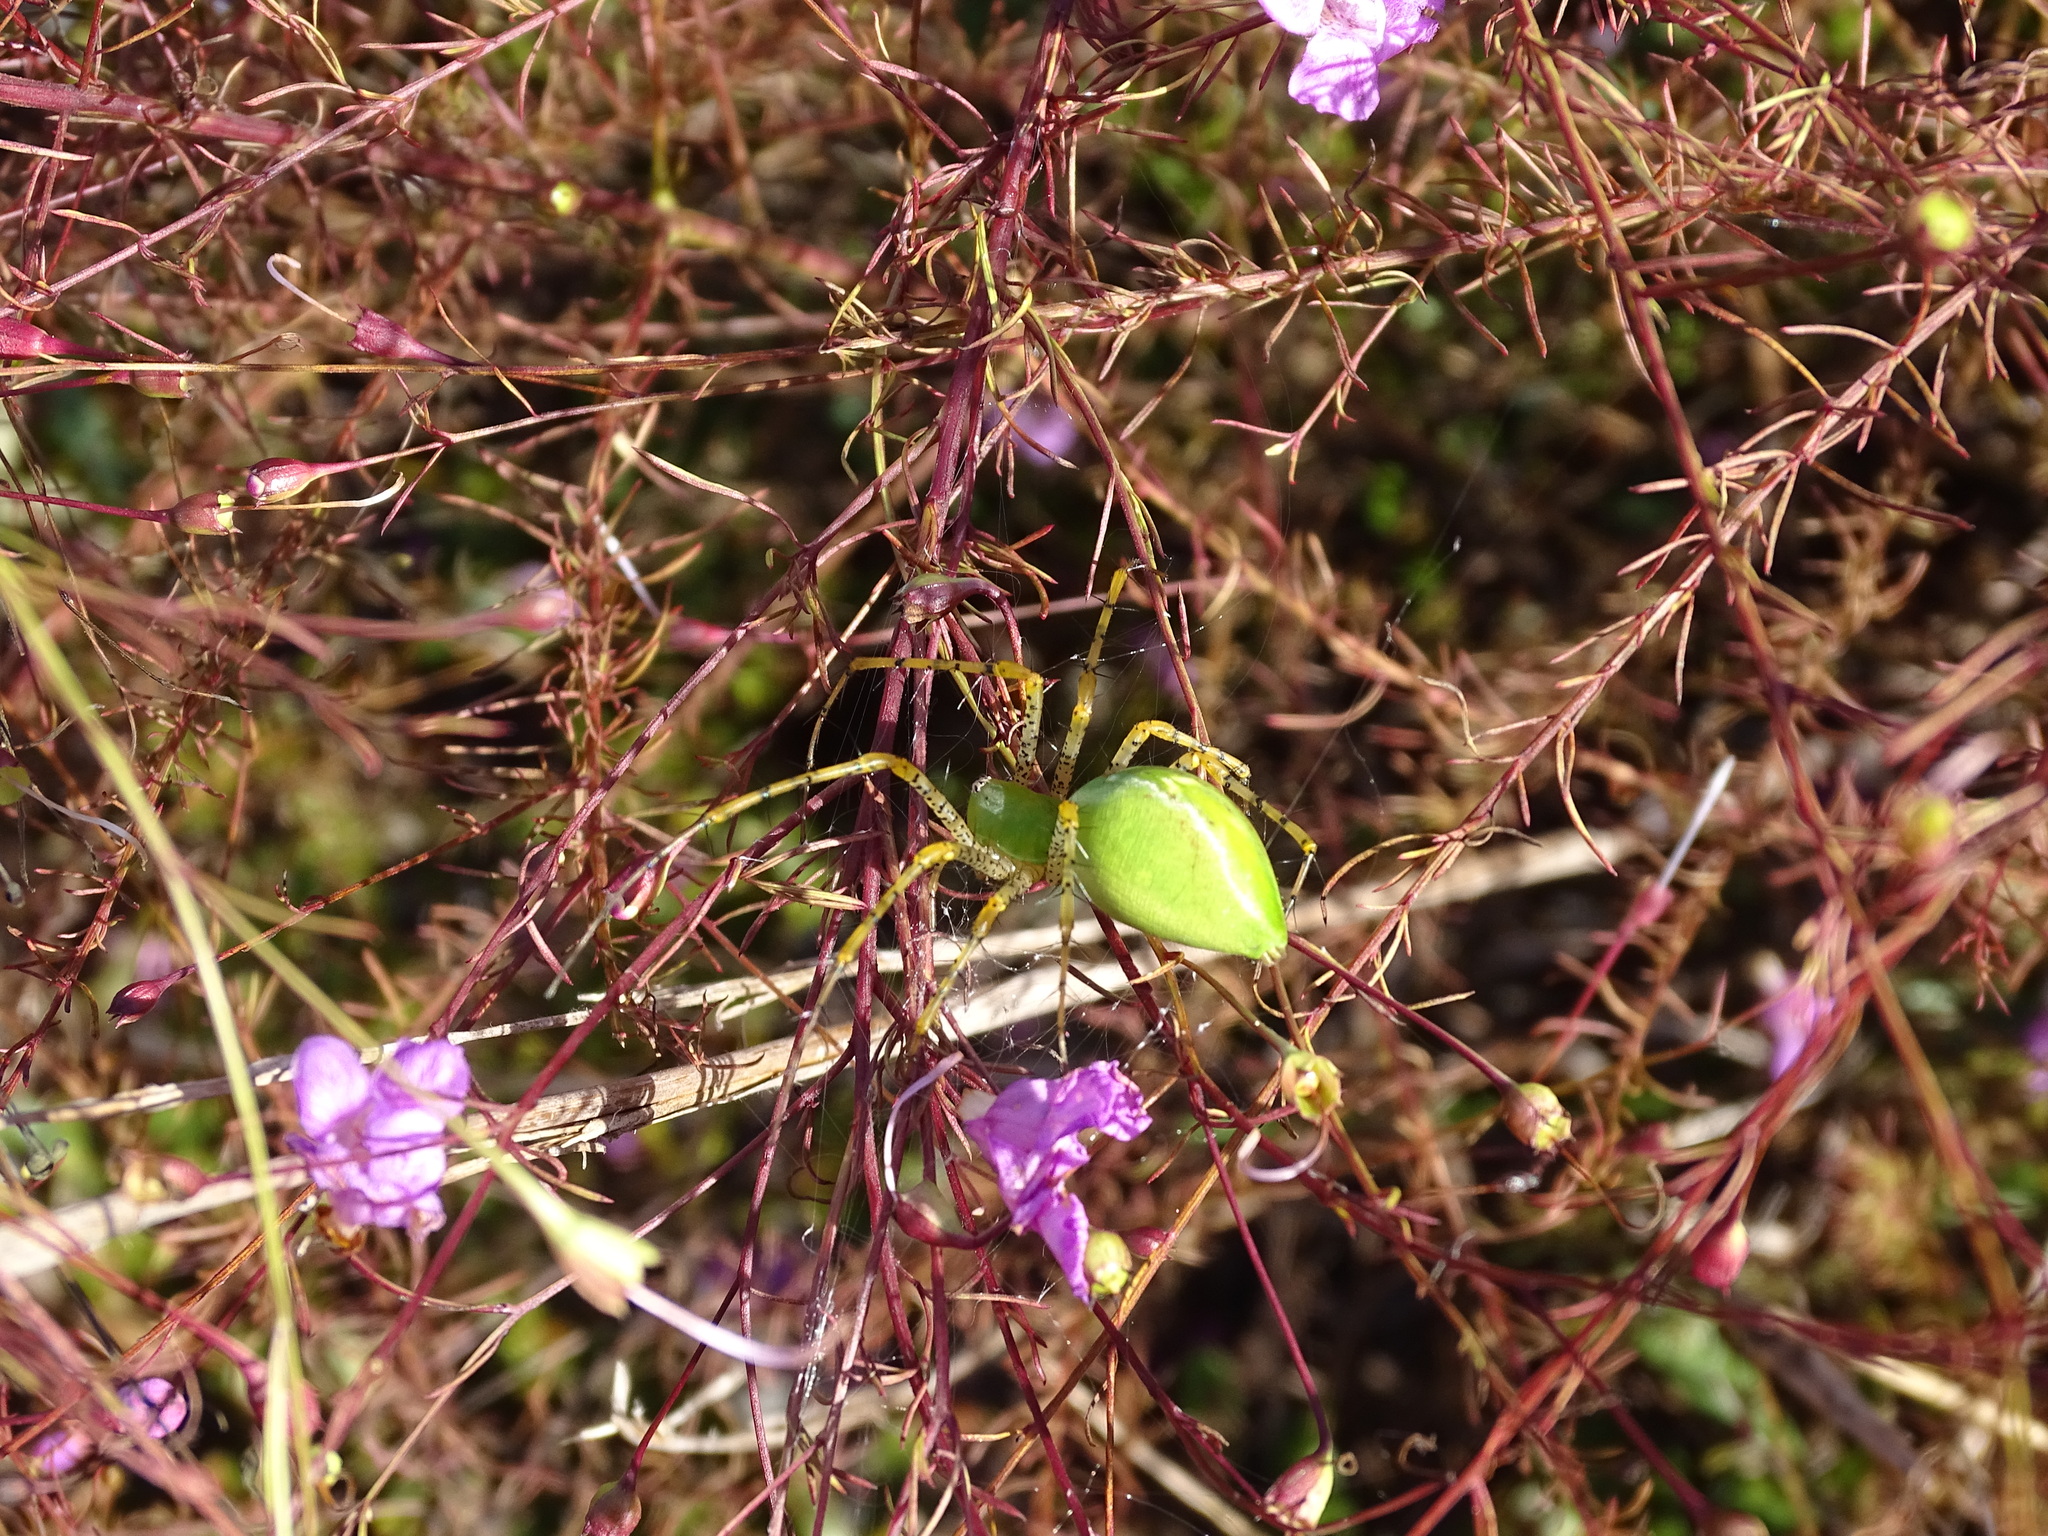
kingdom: Animalia
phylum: Arthropoda
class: Arachnida
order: Araneae
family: Oxyopidae
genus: Peucetia
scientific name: Peucetia viridans
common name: Lynx spiders
